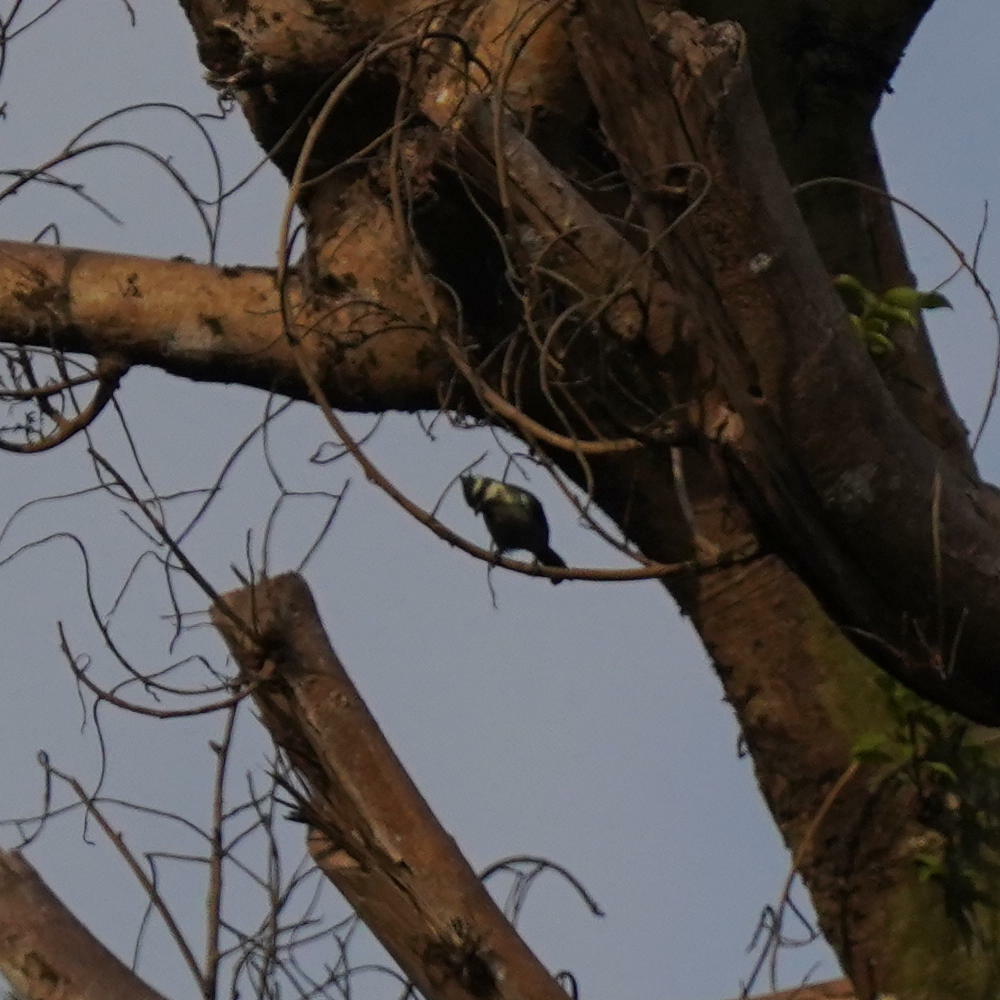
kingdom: Animalia
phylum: Chordata
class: Aves
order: Passeriformes
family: Paridae
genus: Parus
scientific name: Parus aplonotus
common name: Indian black-lored tit
